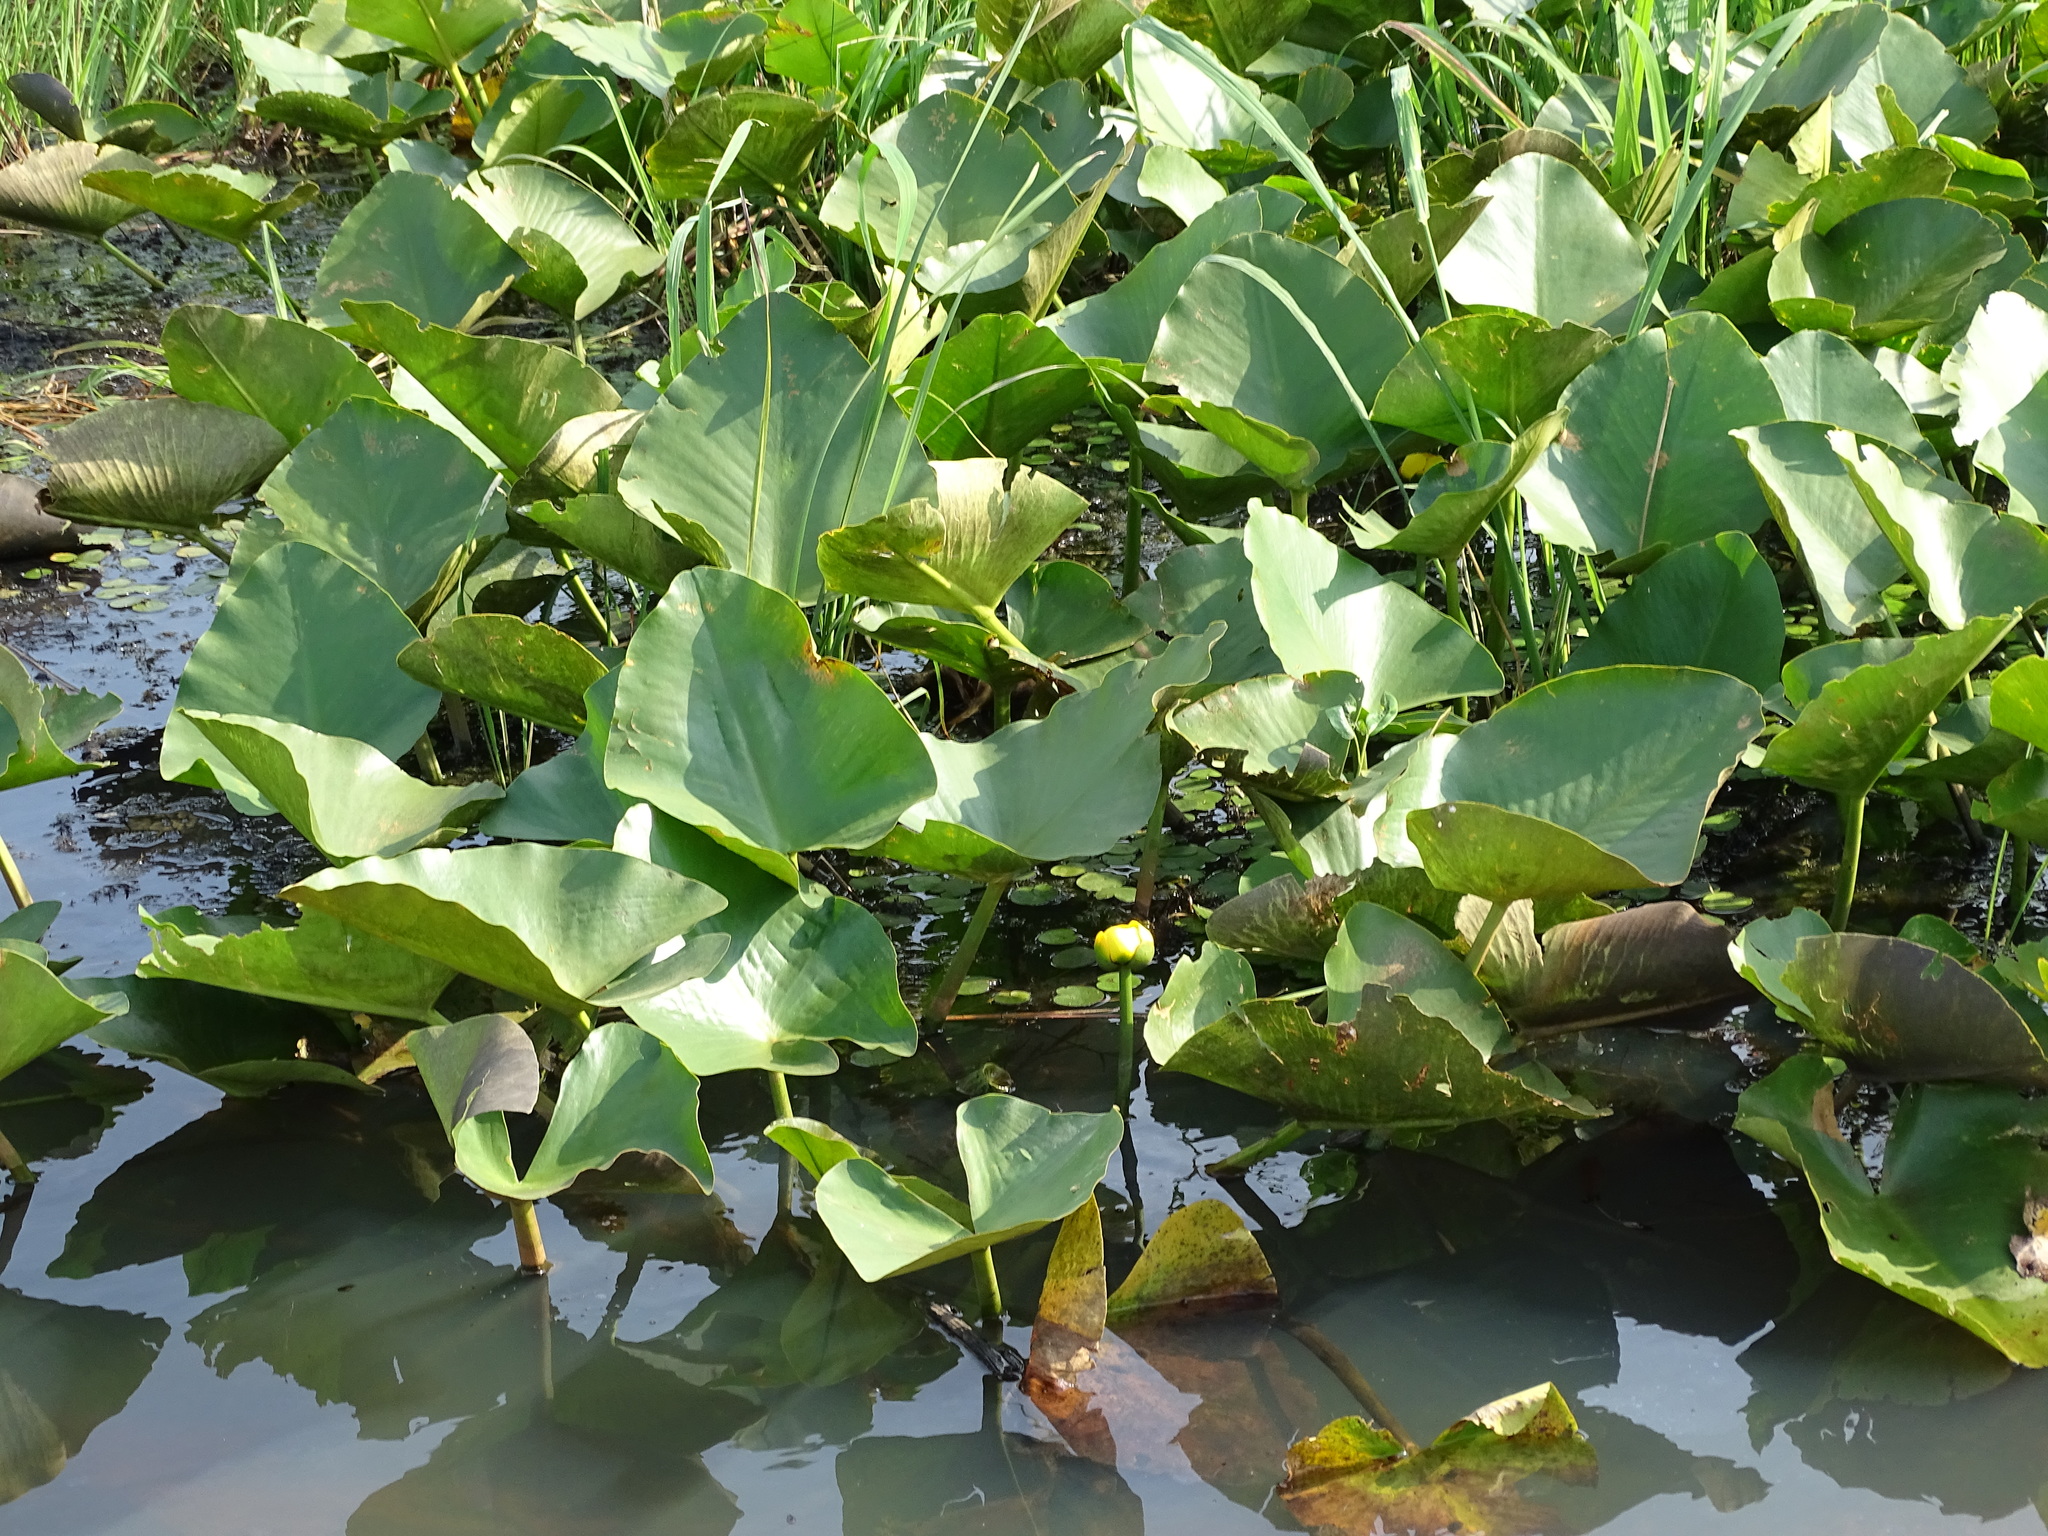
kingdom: Plantae
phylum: Tracheophyta
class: Magnoliopsida
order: Nymphaeales
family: Nymphaeaceae
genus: Nuphar
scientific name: Nuphar advena
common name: Spatter-dock
